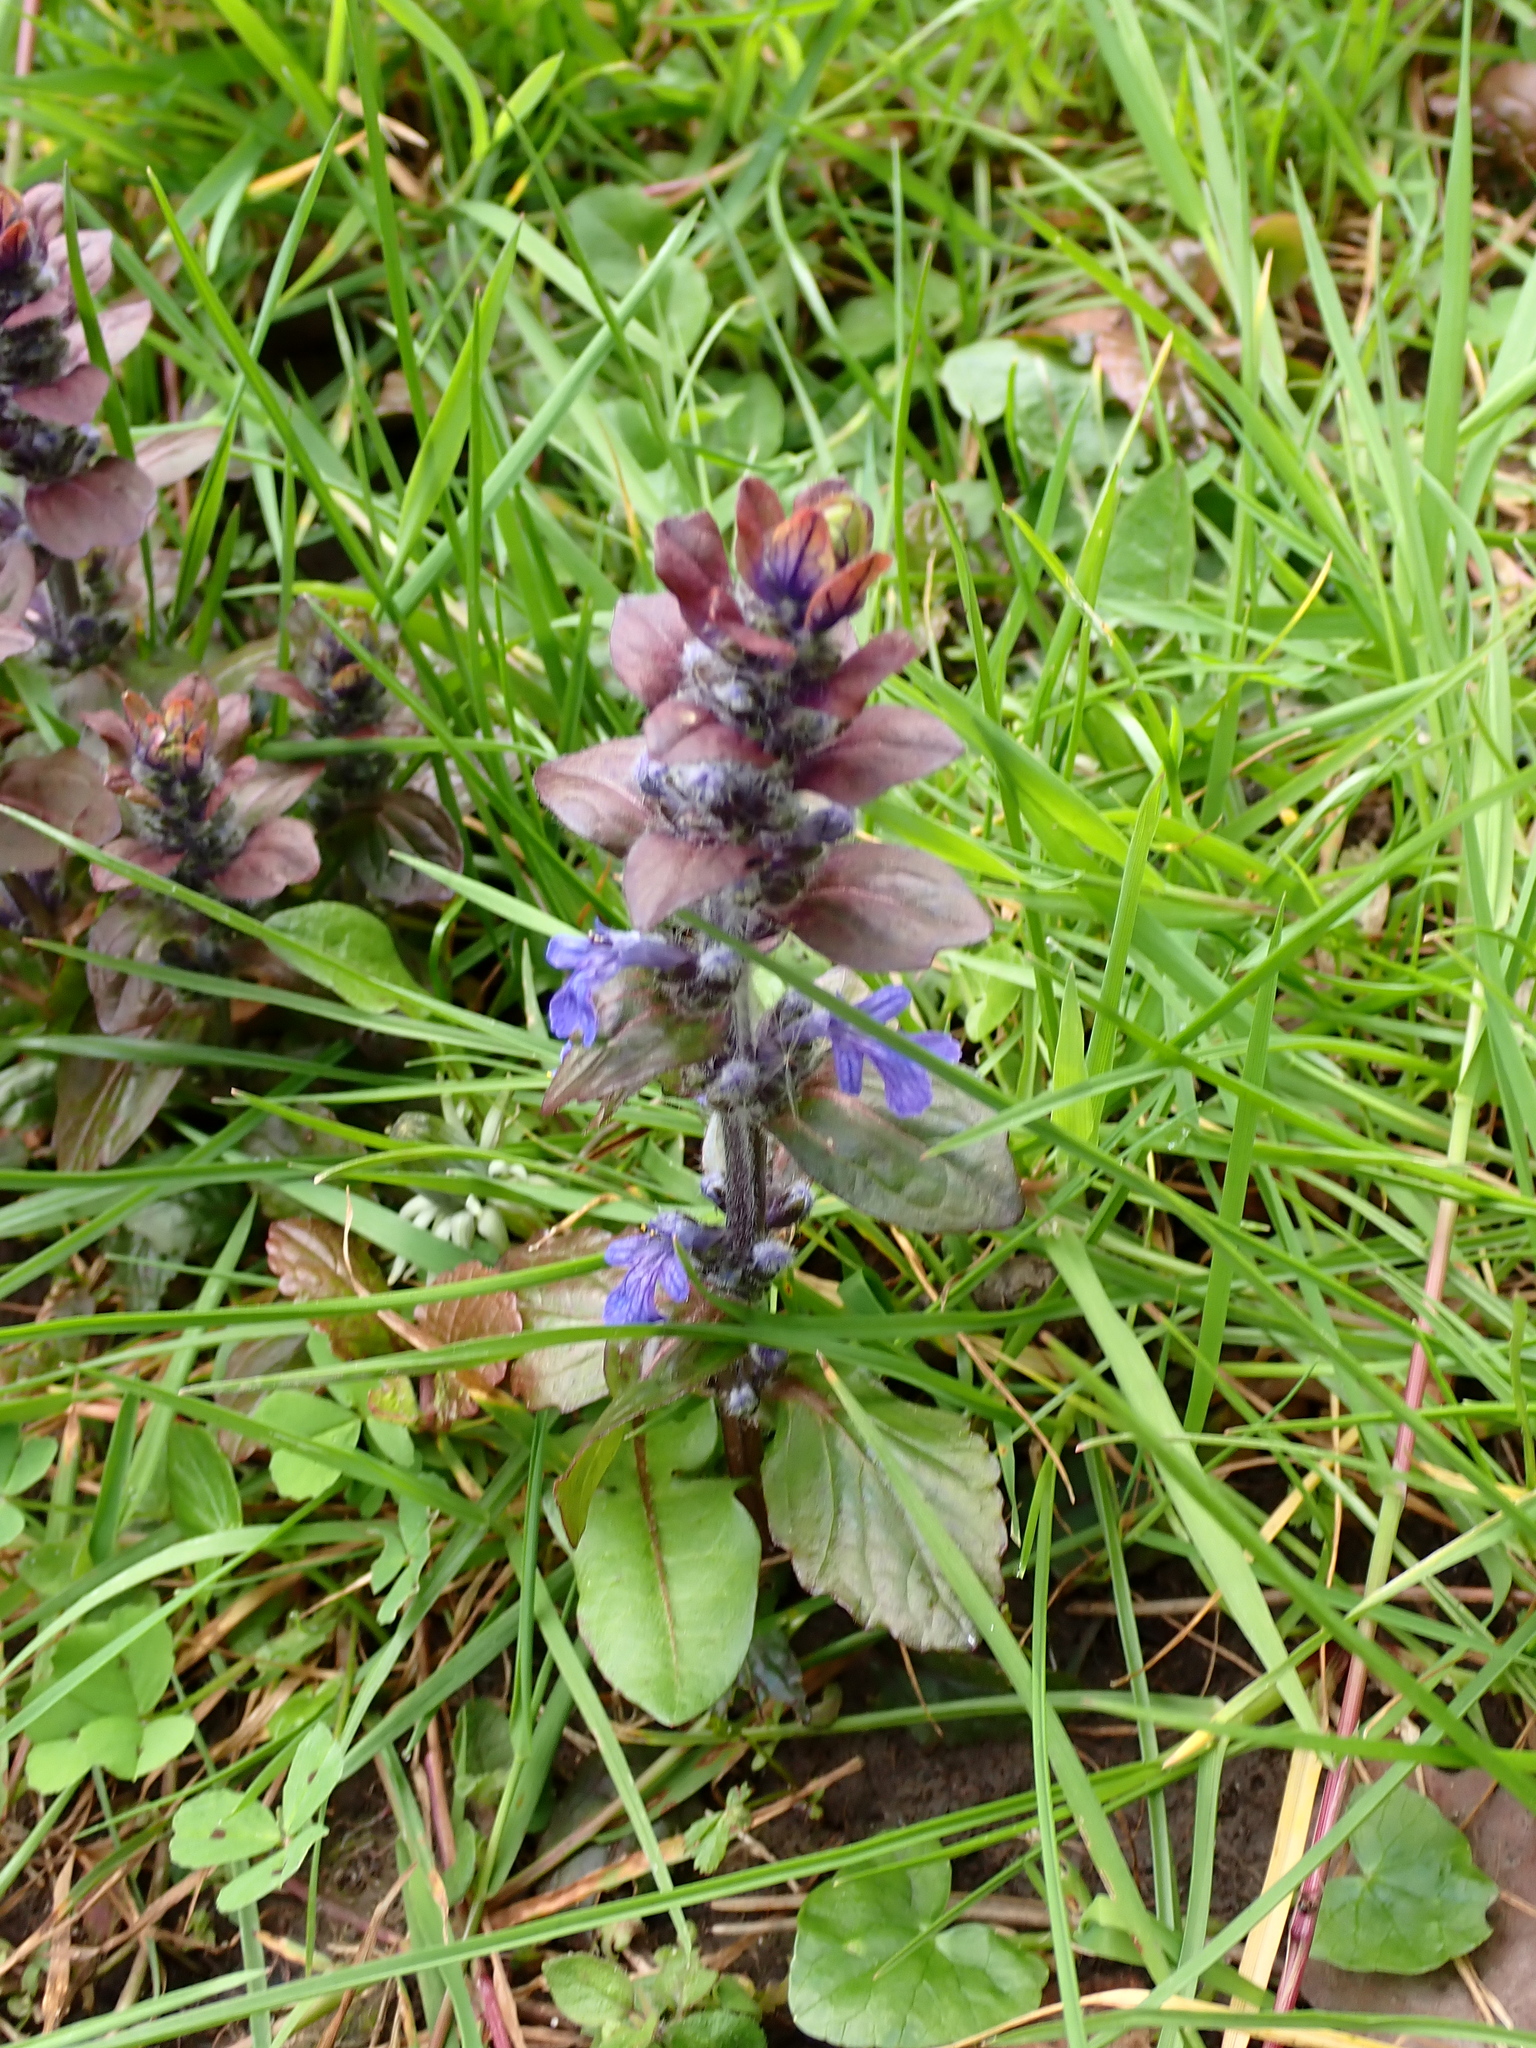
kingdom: Plantae
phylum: Tracheophyta
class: Magnoliopsida
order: Lamiales
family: Lamiaceae
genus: Ajuga
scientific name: Ajuga reptans
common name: Bugle
